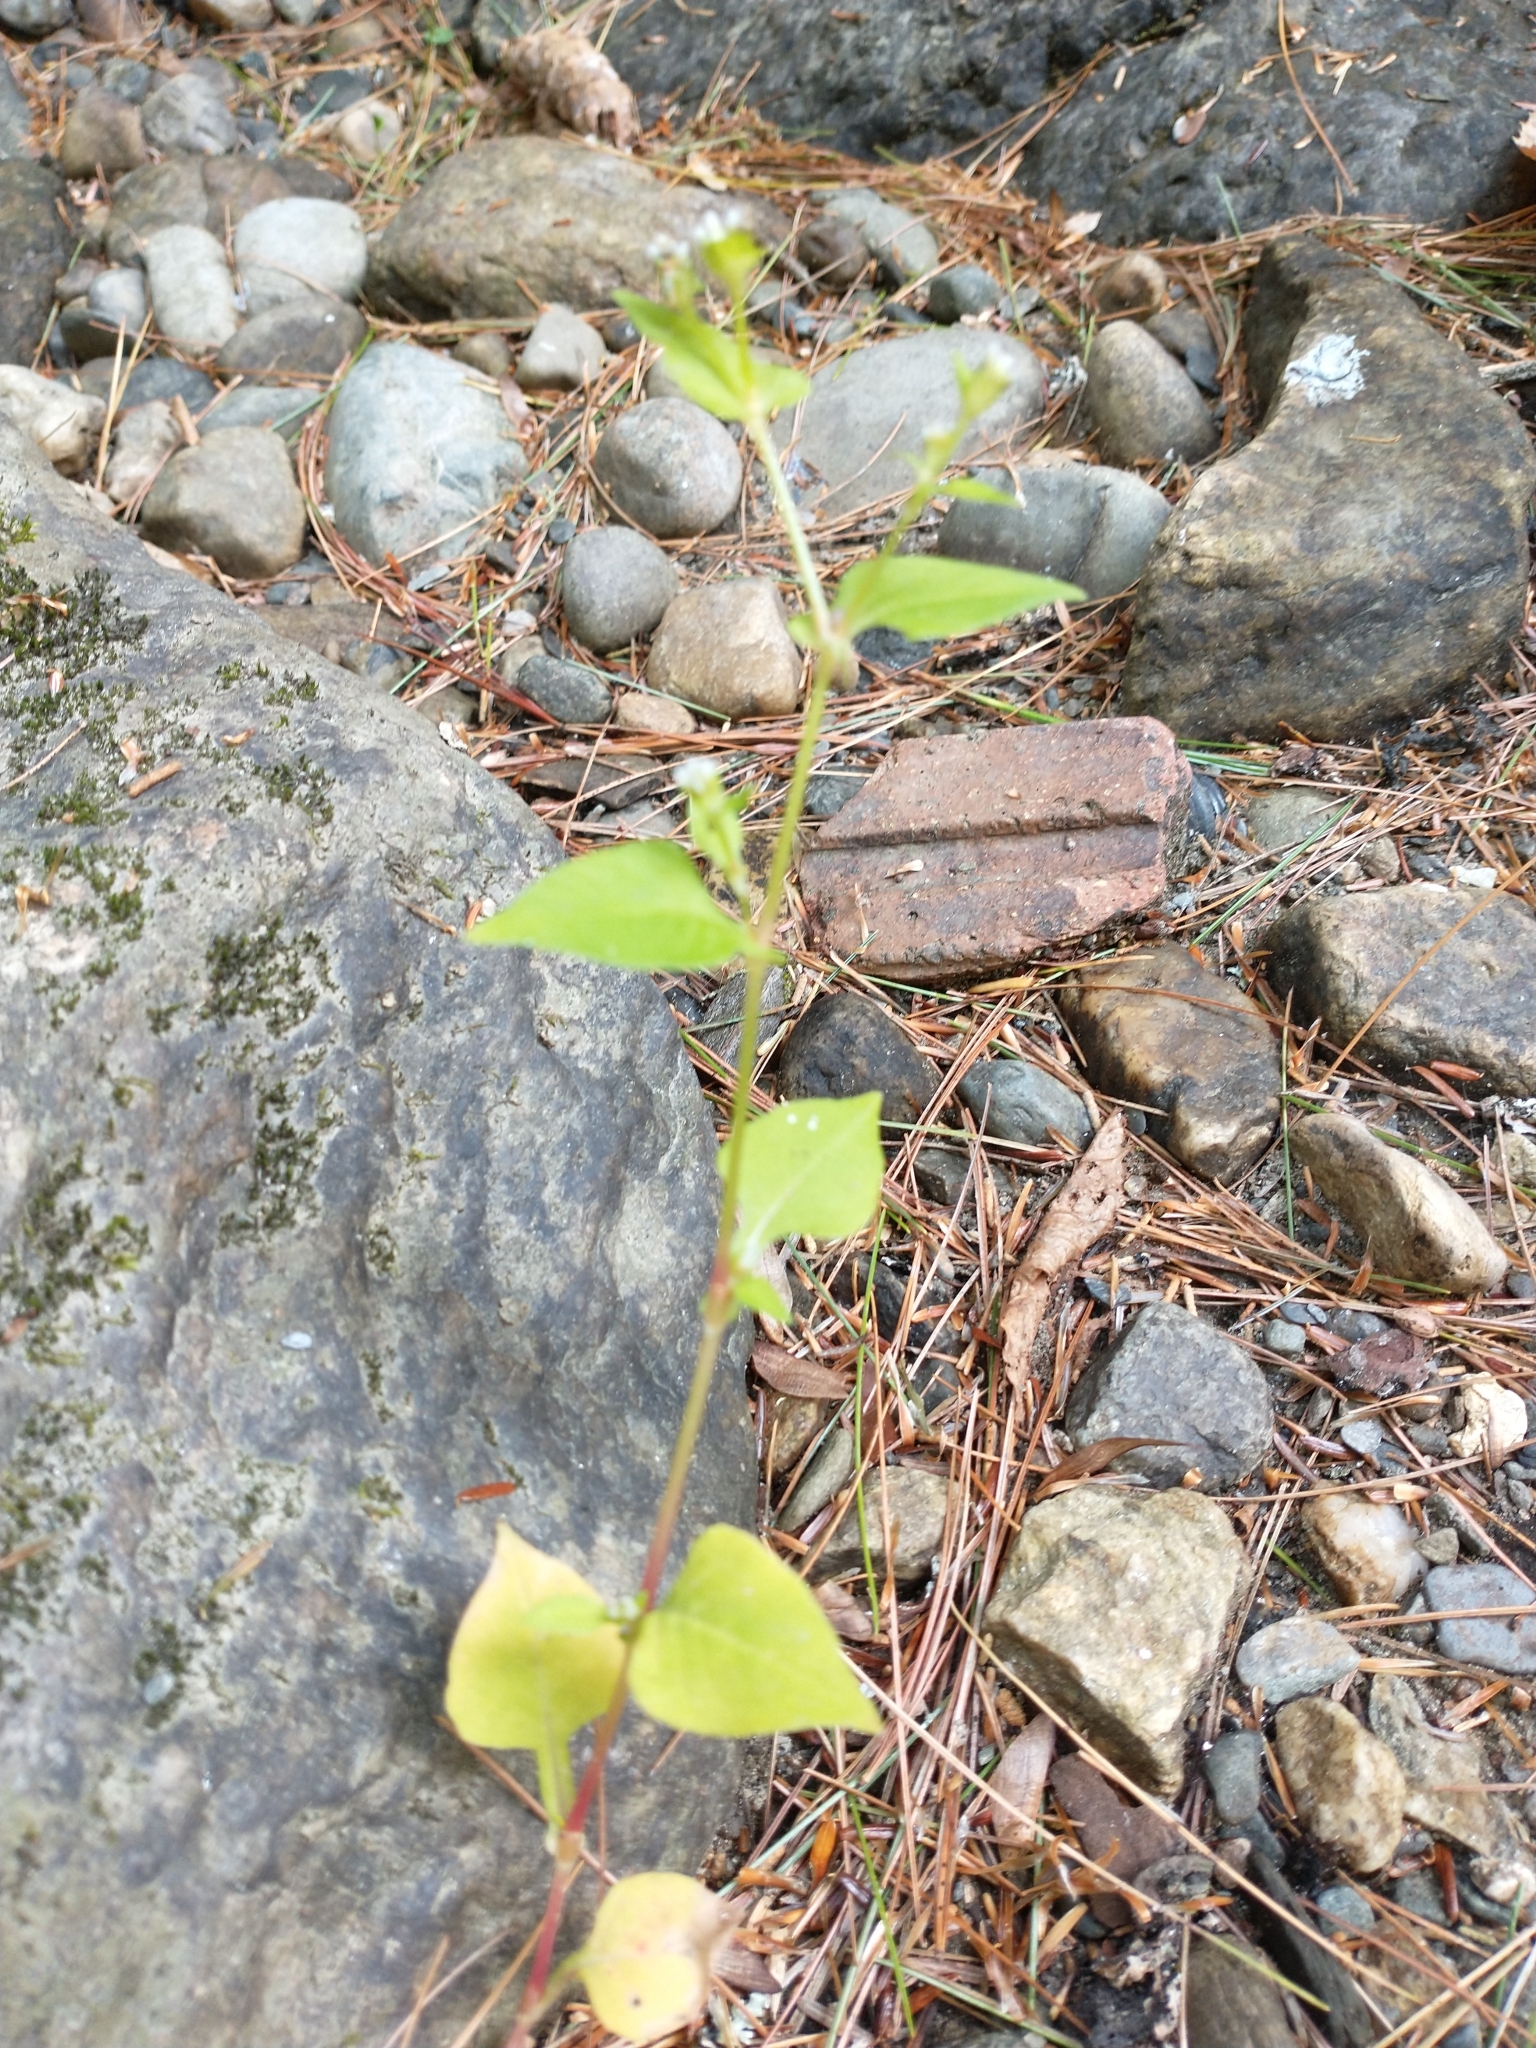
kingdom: Plantae
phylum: Tracheophyta
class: Magnoliopsida
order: Caryophyllales
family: Polygonaceae
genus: Persicaria
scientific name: Persicaria nepalensis
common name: Nepal persicaria
